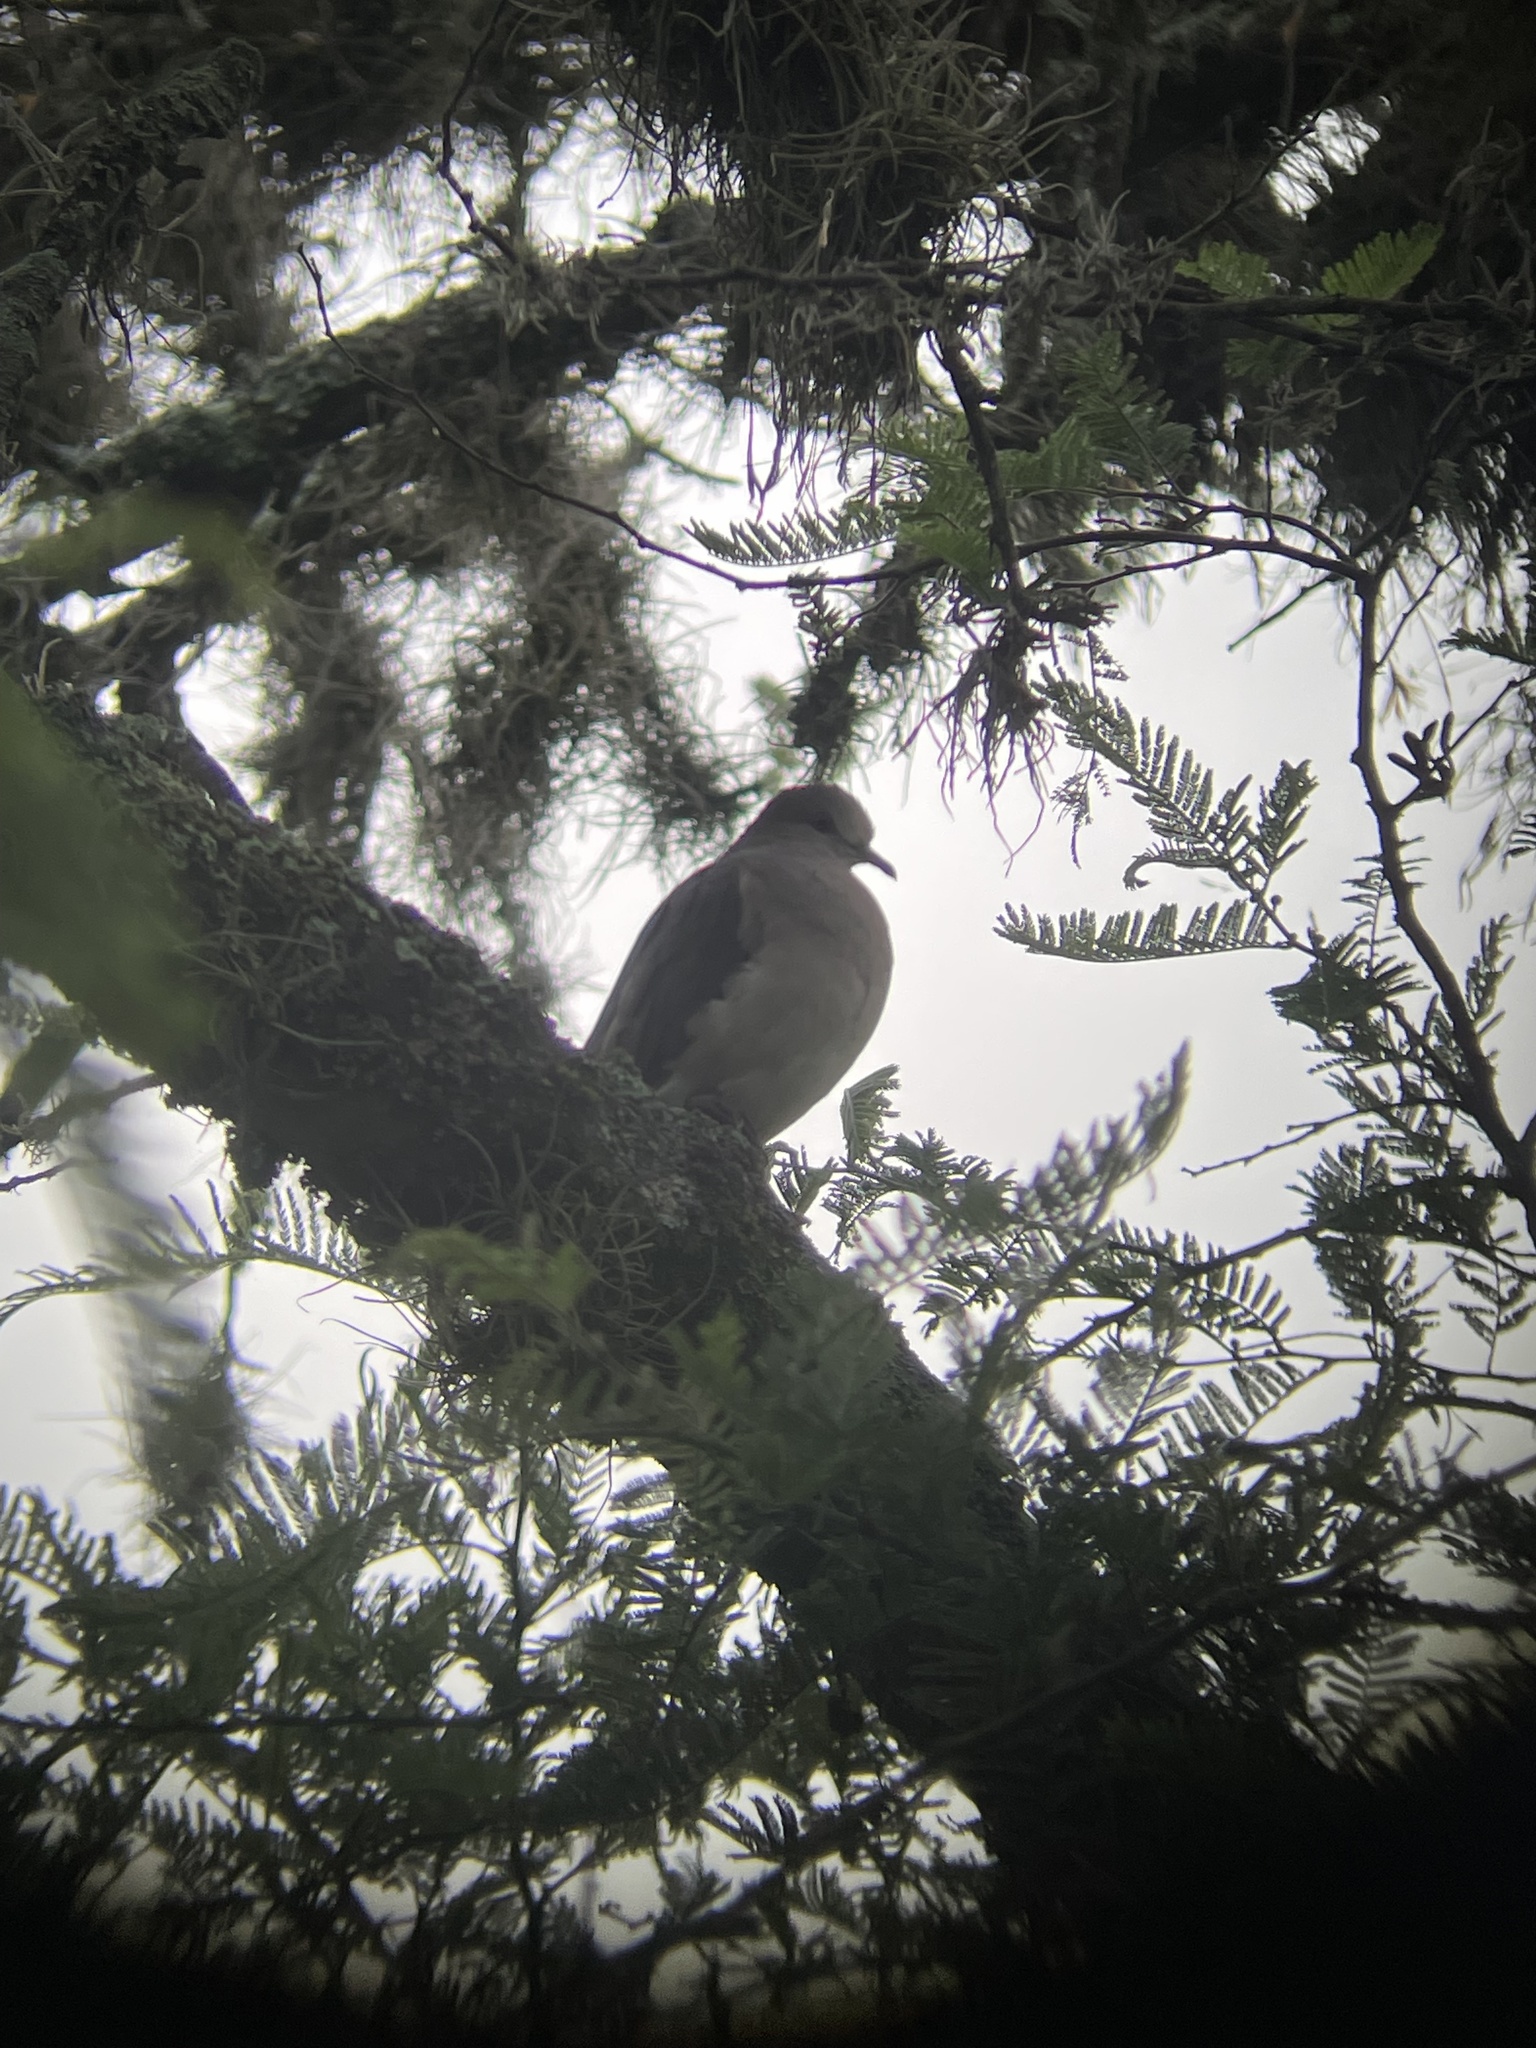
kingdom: Animalia
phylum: Chordata
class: Aves
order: Columbiformes
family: Columbidae
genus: Leptotila
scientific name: Leptotila verreauxi
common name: White-tipped dove
